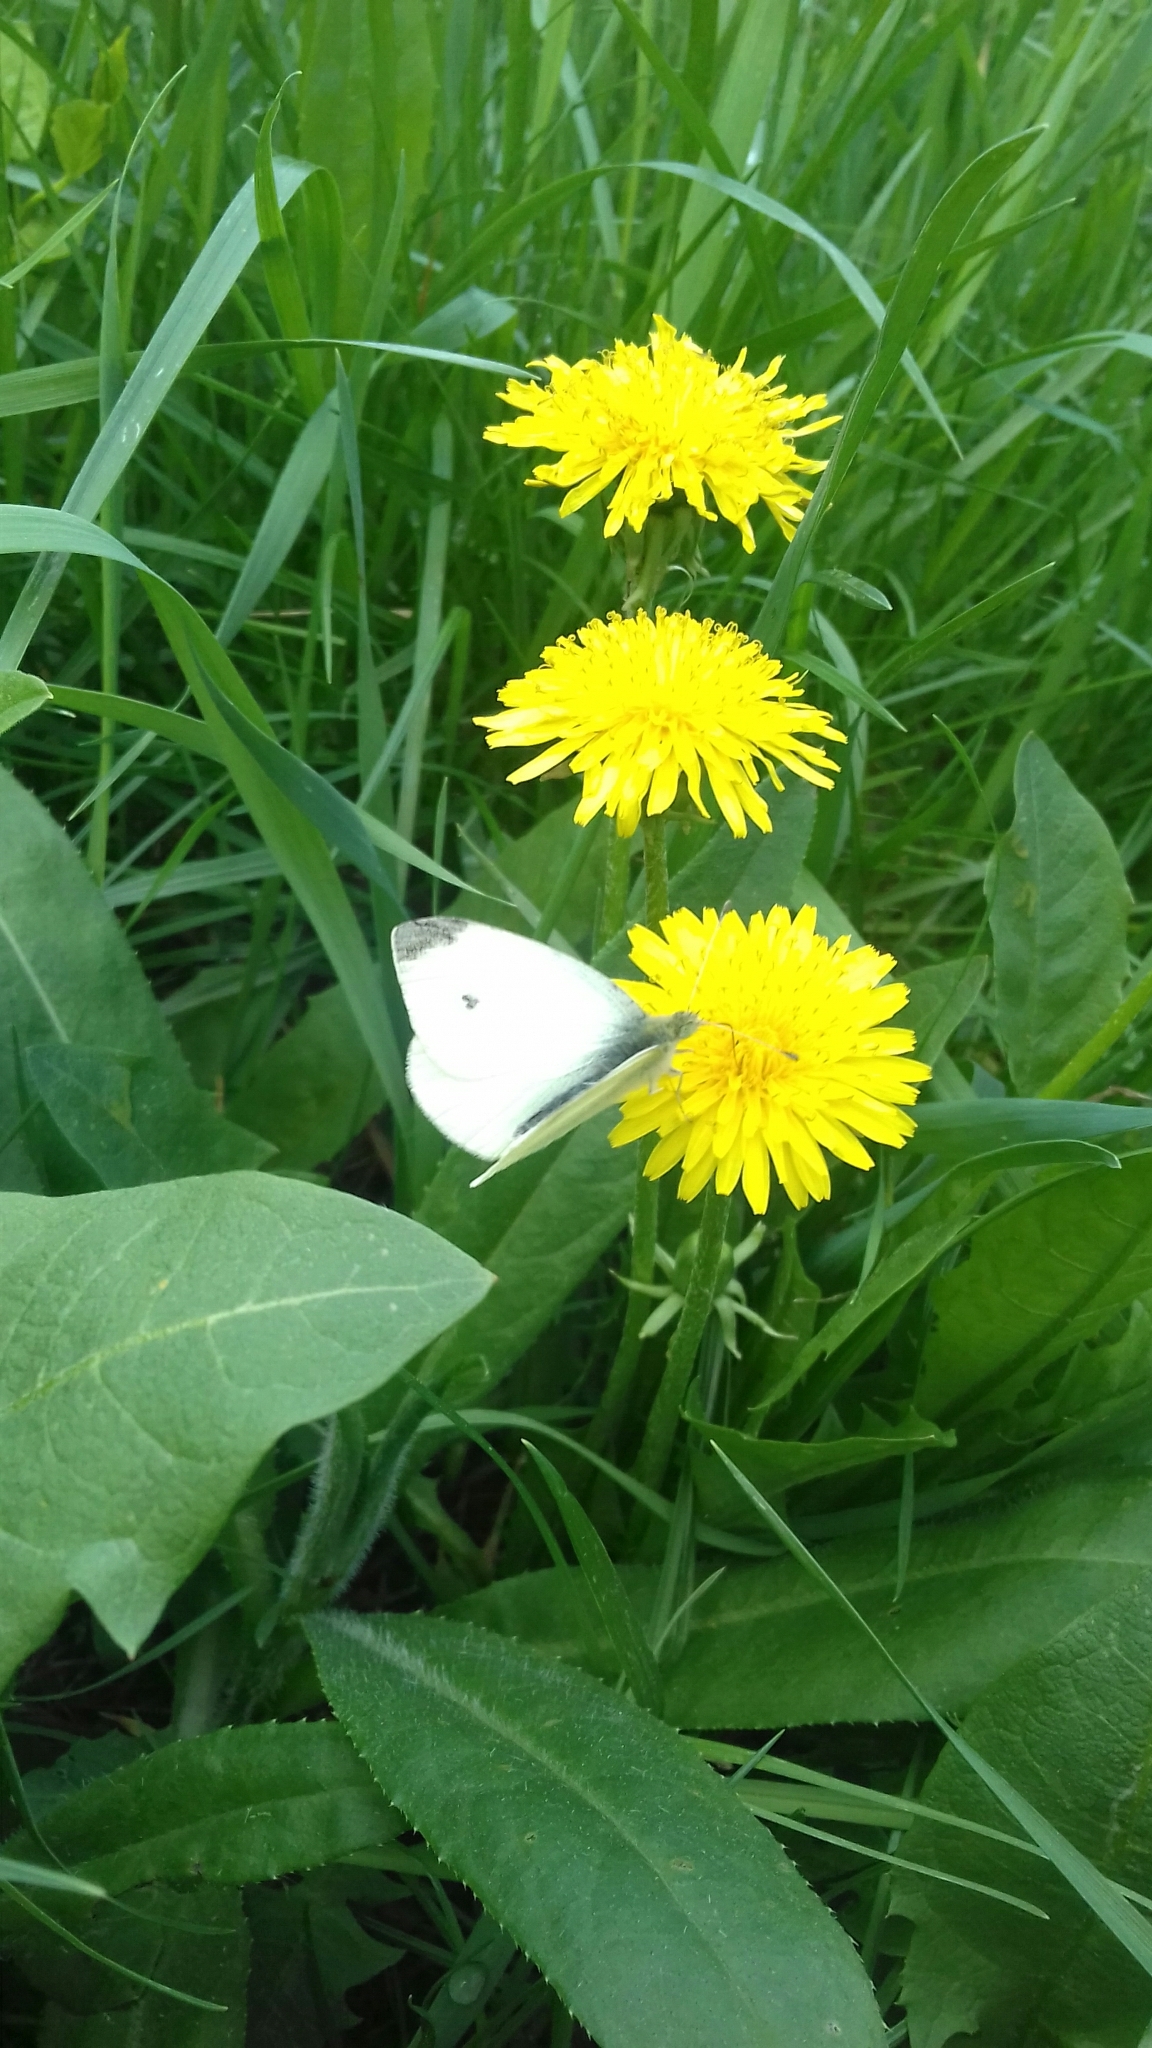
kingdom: Animalia
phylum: Arthropoda
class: Insecta
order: Lepidoptera
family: Pieridae
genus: Pieris
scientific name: Pieris rapae
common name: Small white
